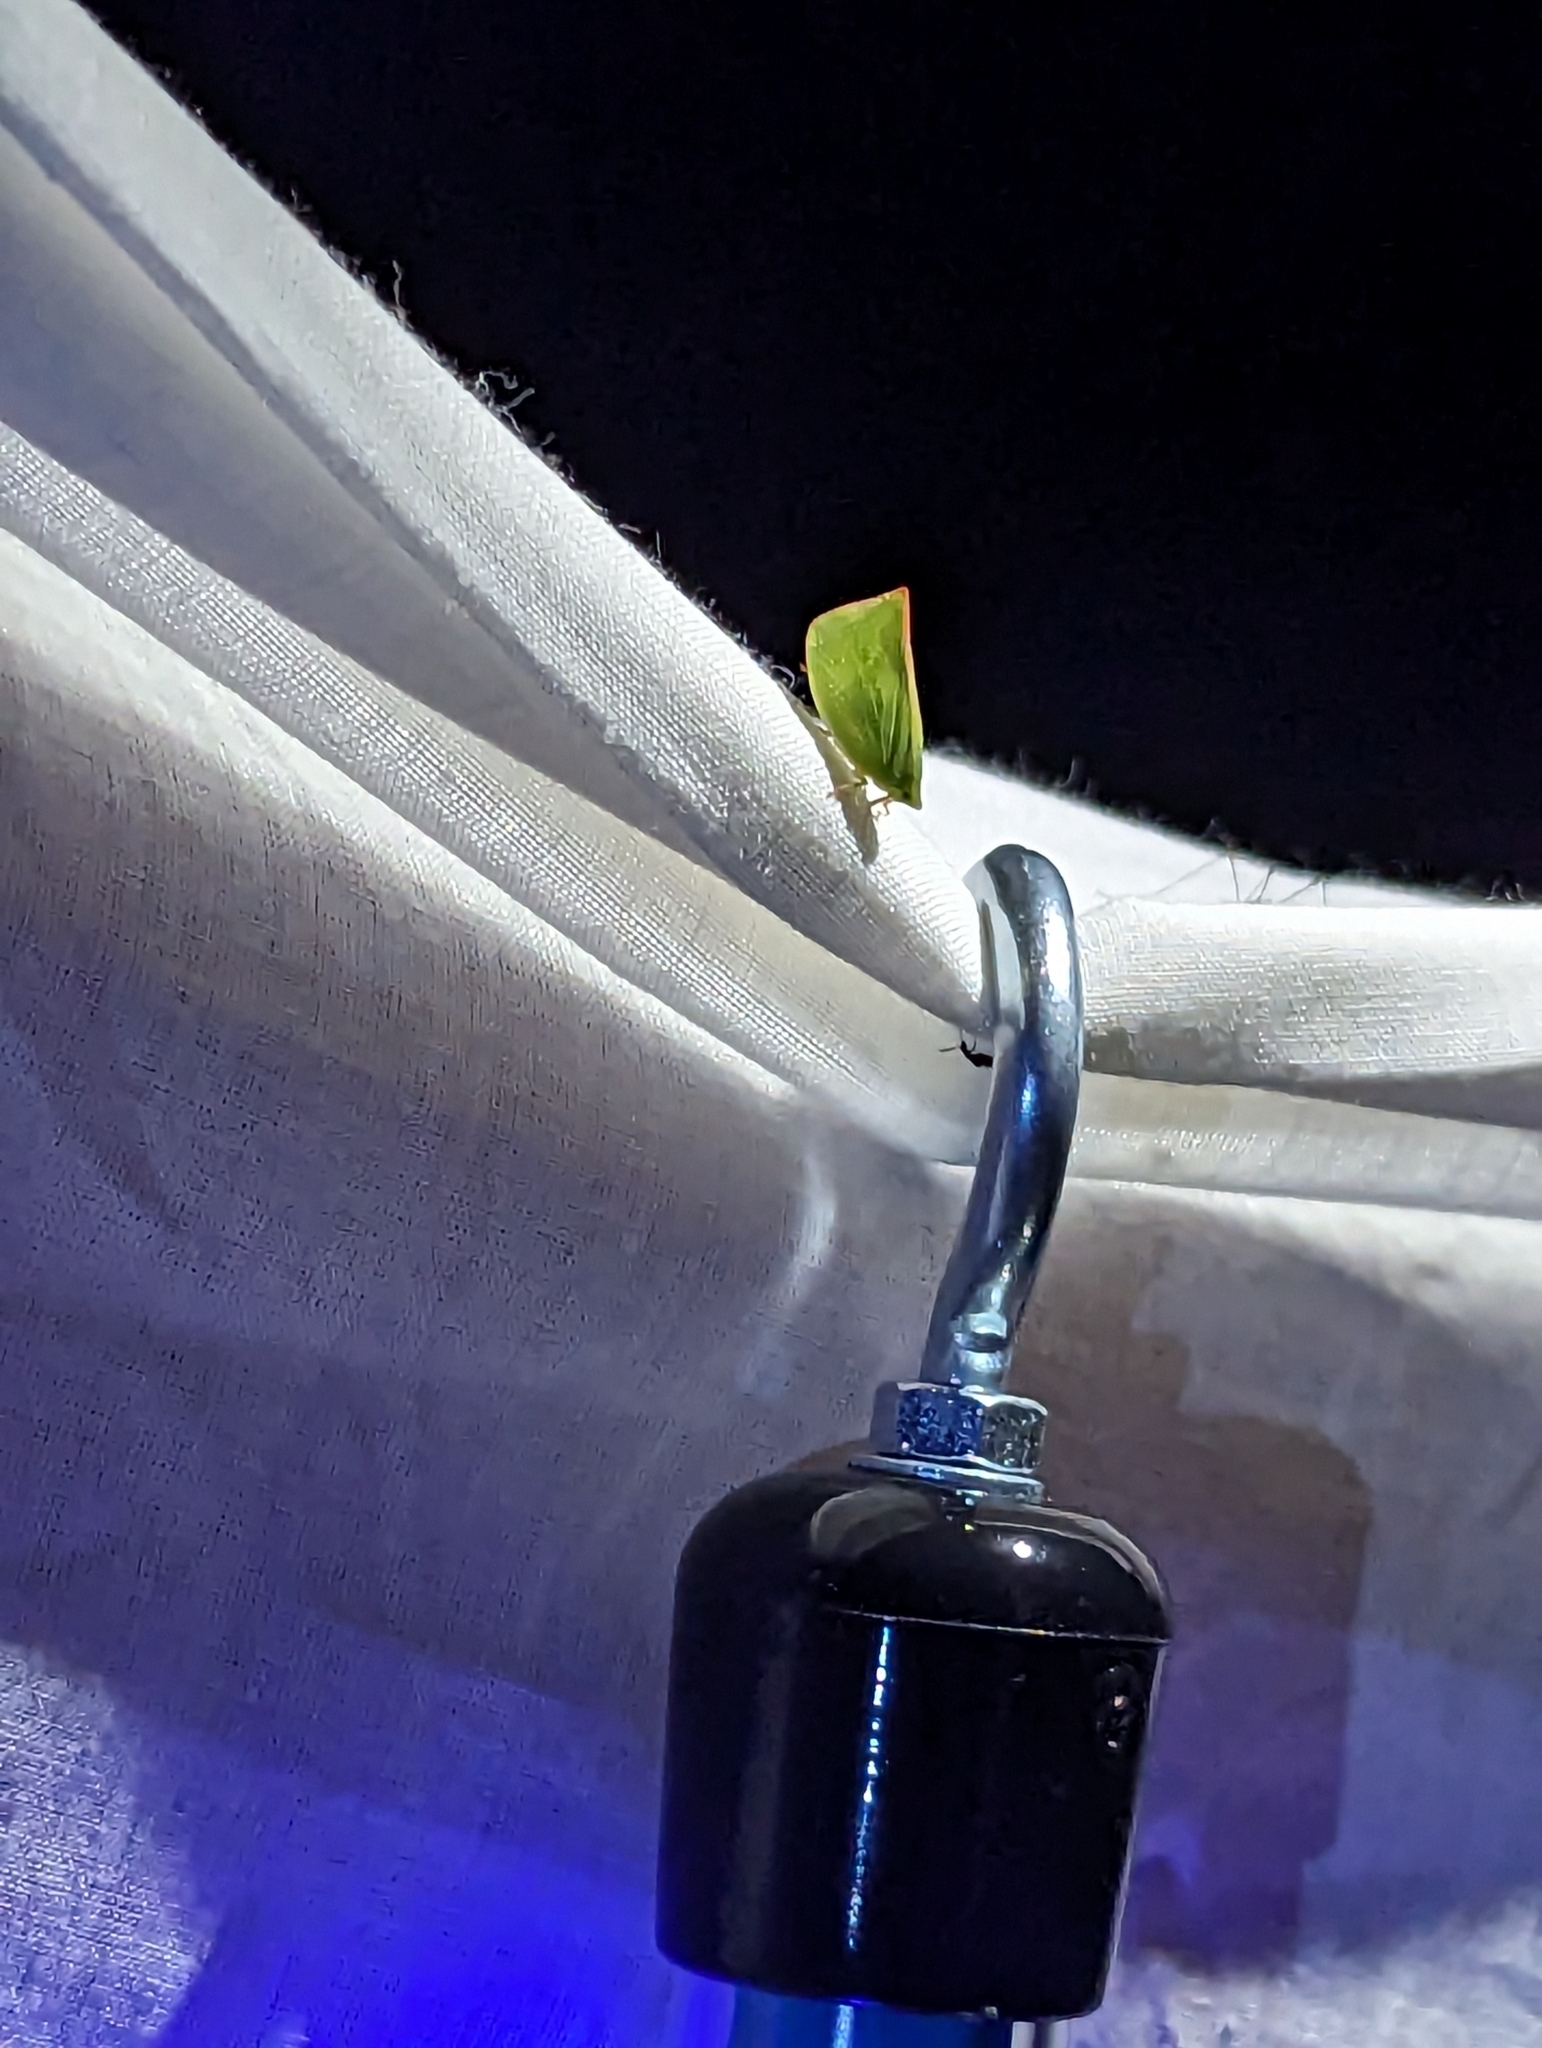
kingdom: Animalia
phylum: Arthropoda
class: Insecta
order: Hemiptera
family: Flatidae
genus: Siphanta
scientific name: Siphanta acuta
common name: Torpedo bug
